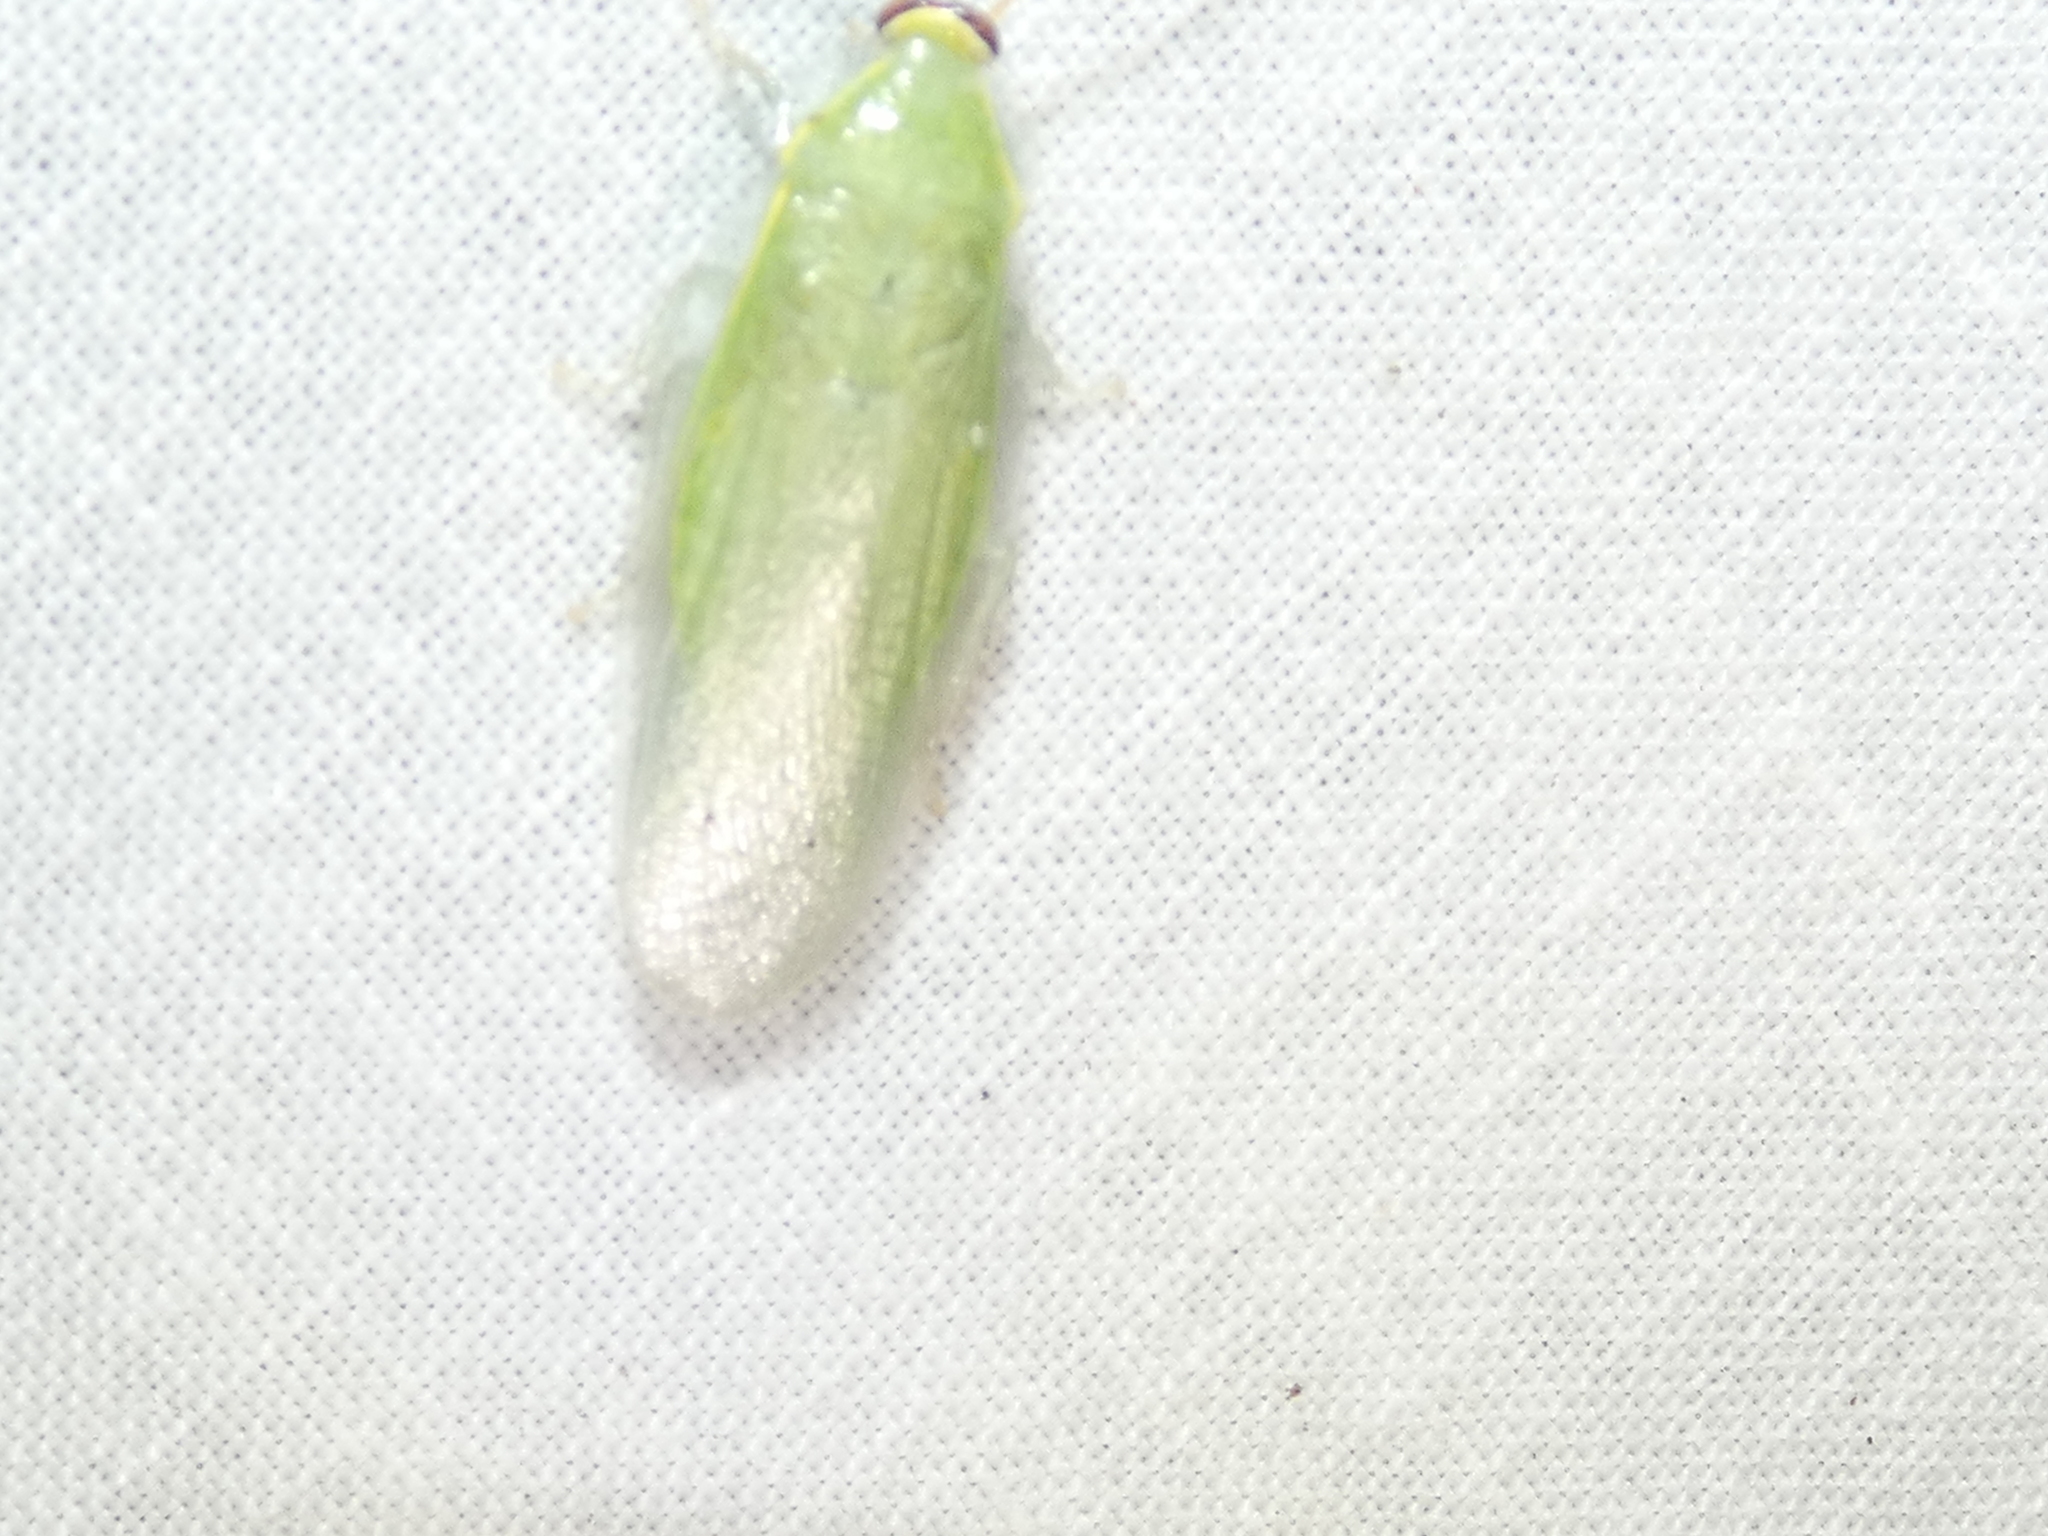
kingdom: Animalia
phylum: Arthropoda
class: Insecta
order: Blattodea
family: Blaberidae
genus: Panchlora
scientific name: Panchlora nivea
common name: Cuban cockroach
